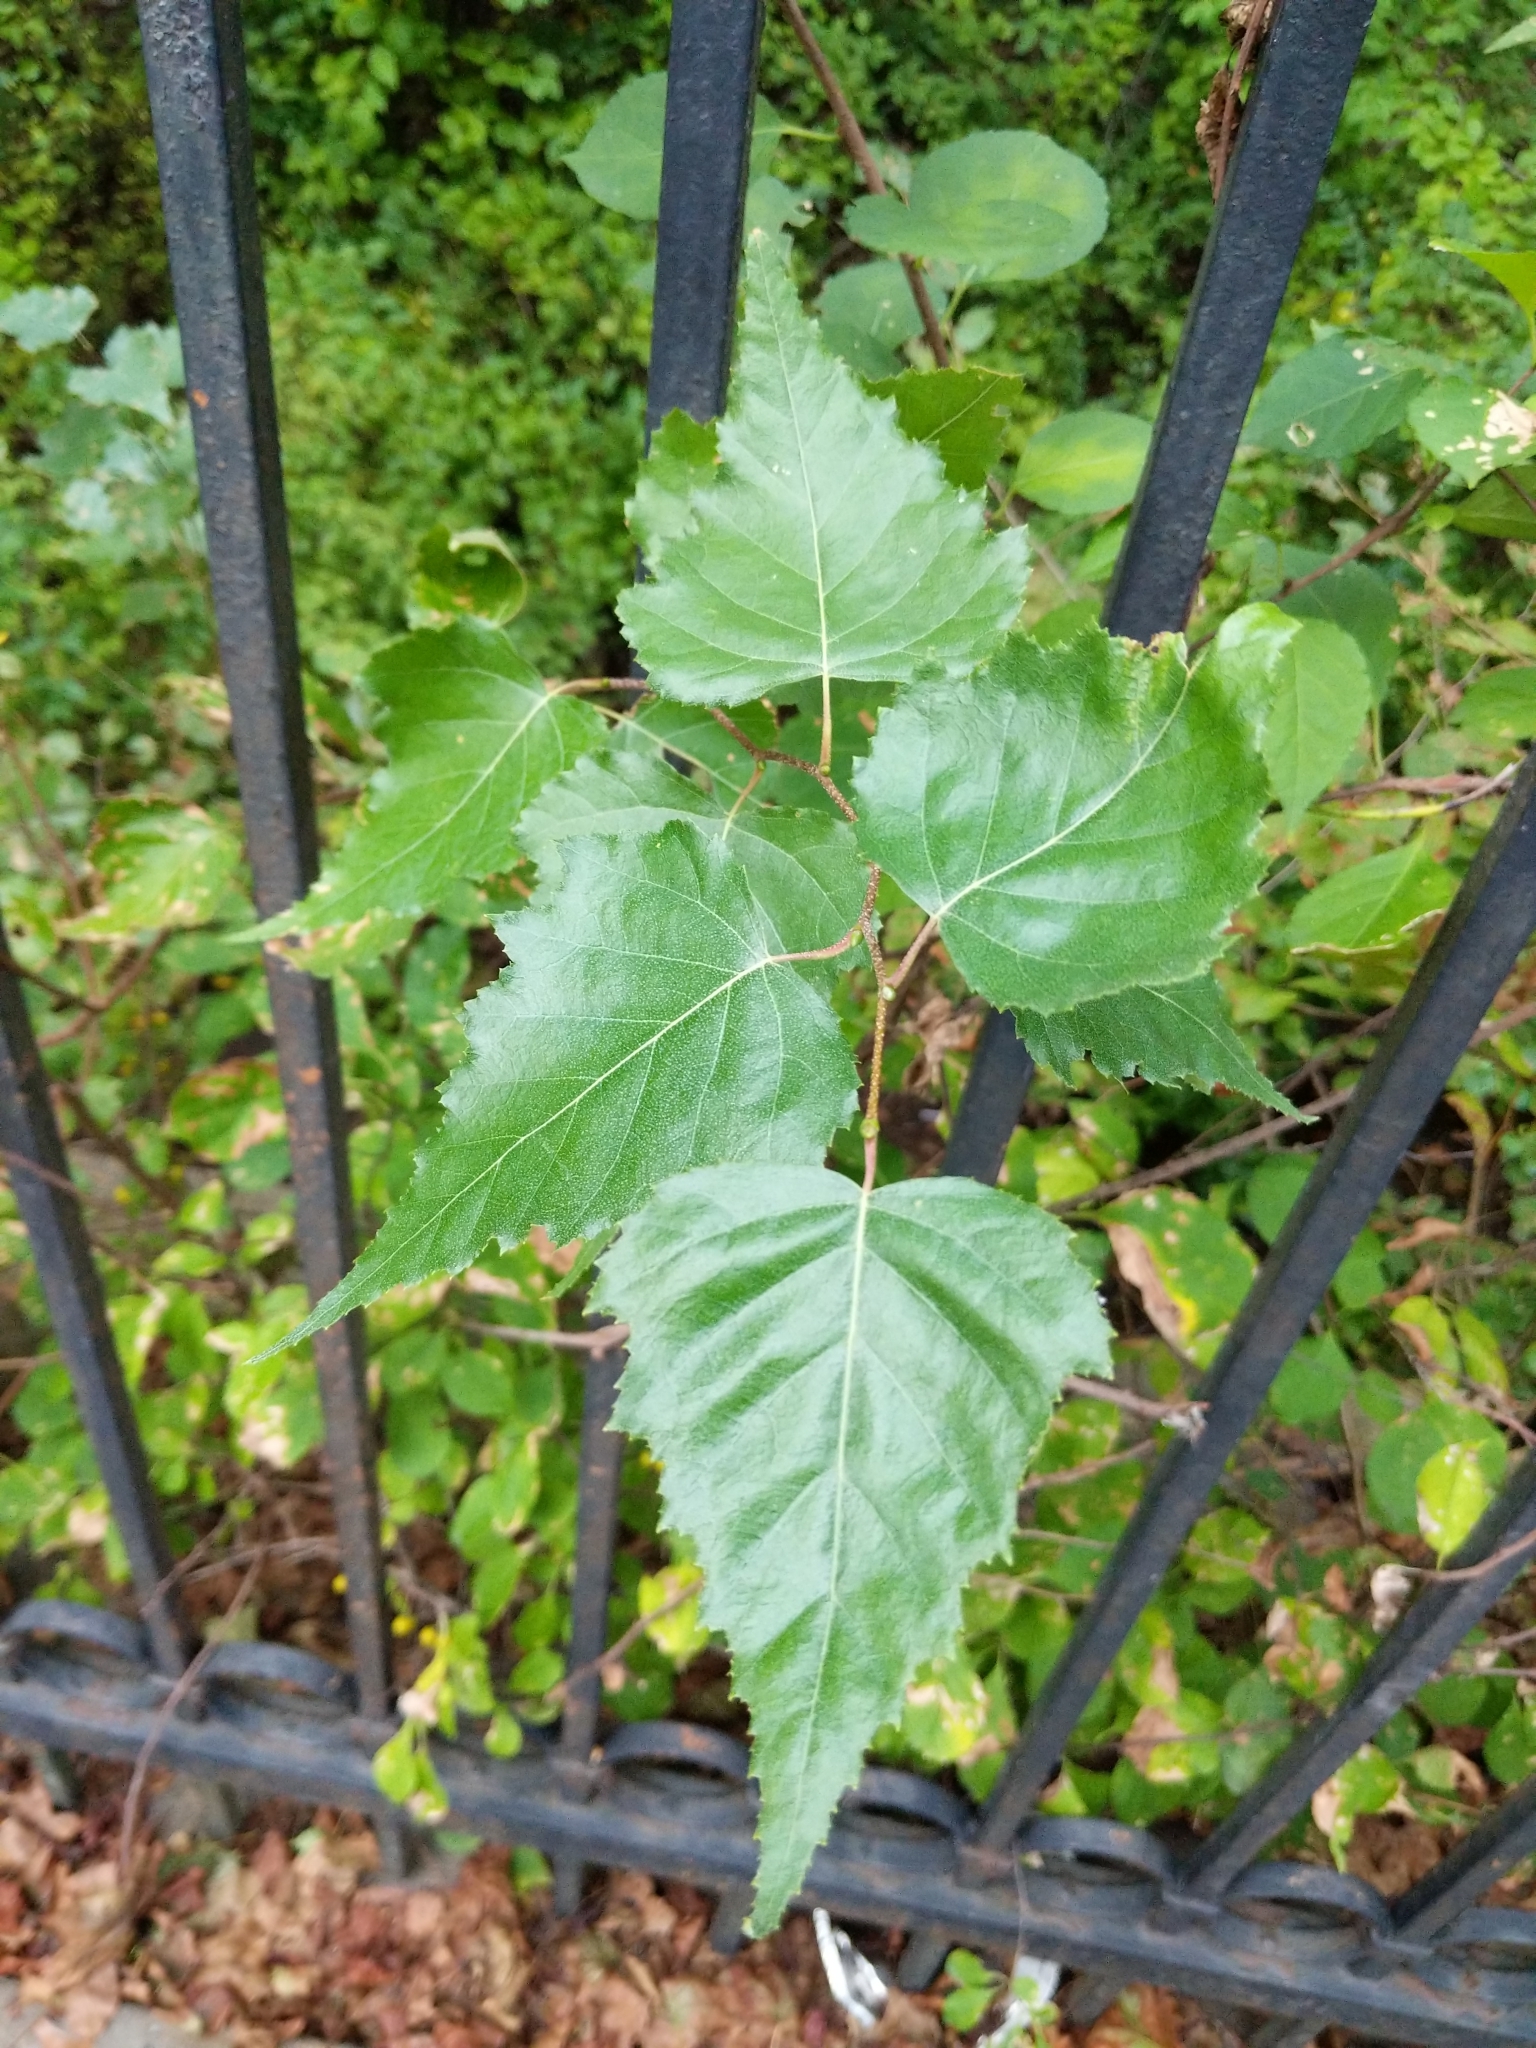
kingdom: Plantae
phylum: Tracheophyta
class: Magnoliopsida
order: Fagales
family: Betulaceae
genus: Betula
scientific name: Betula populifolia
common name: Fire birch
